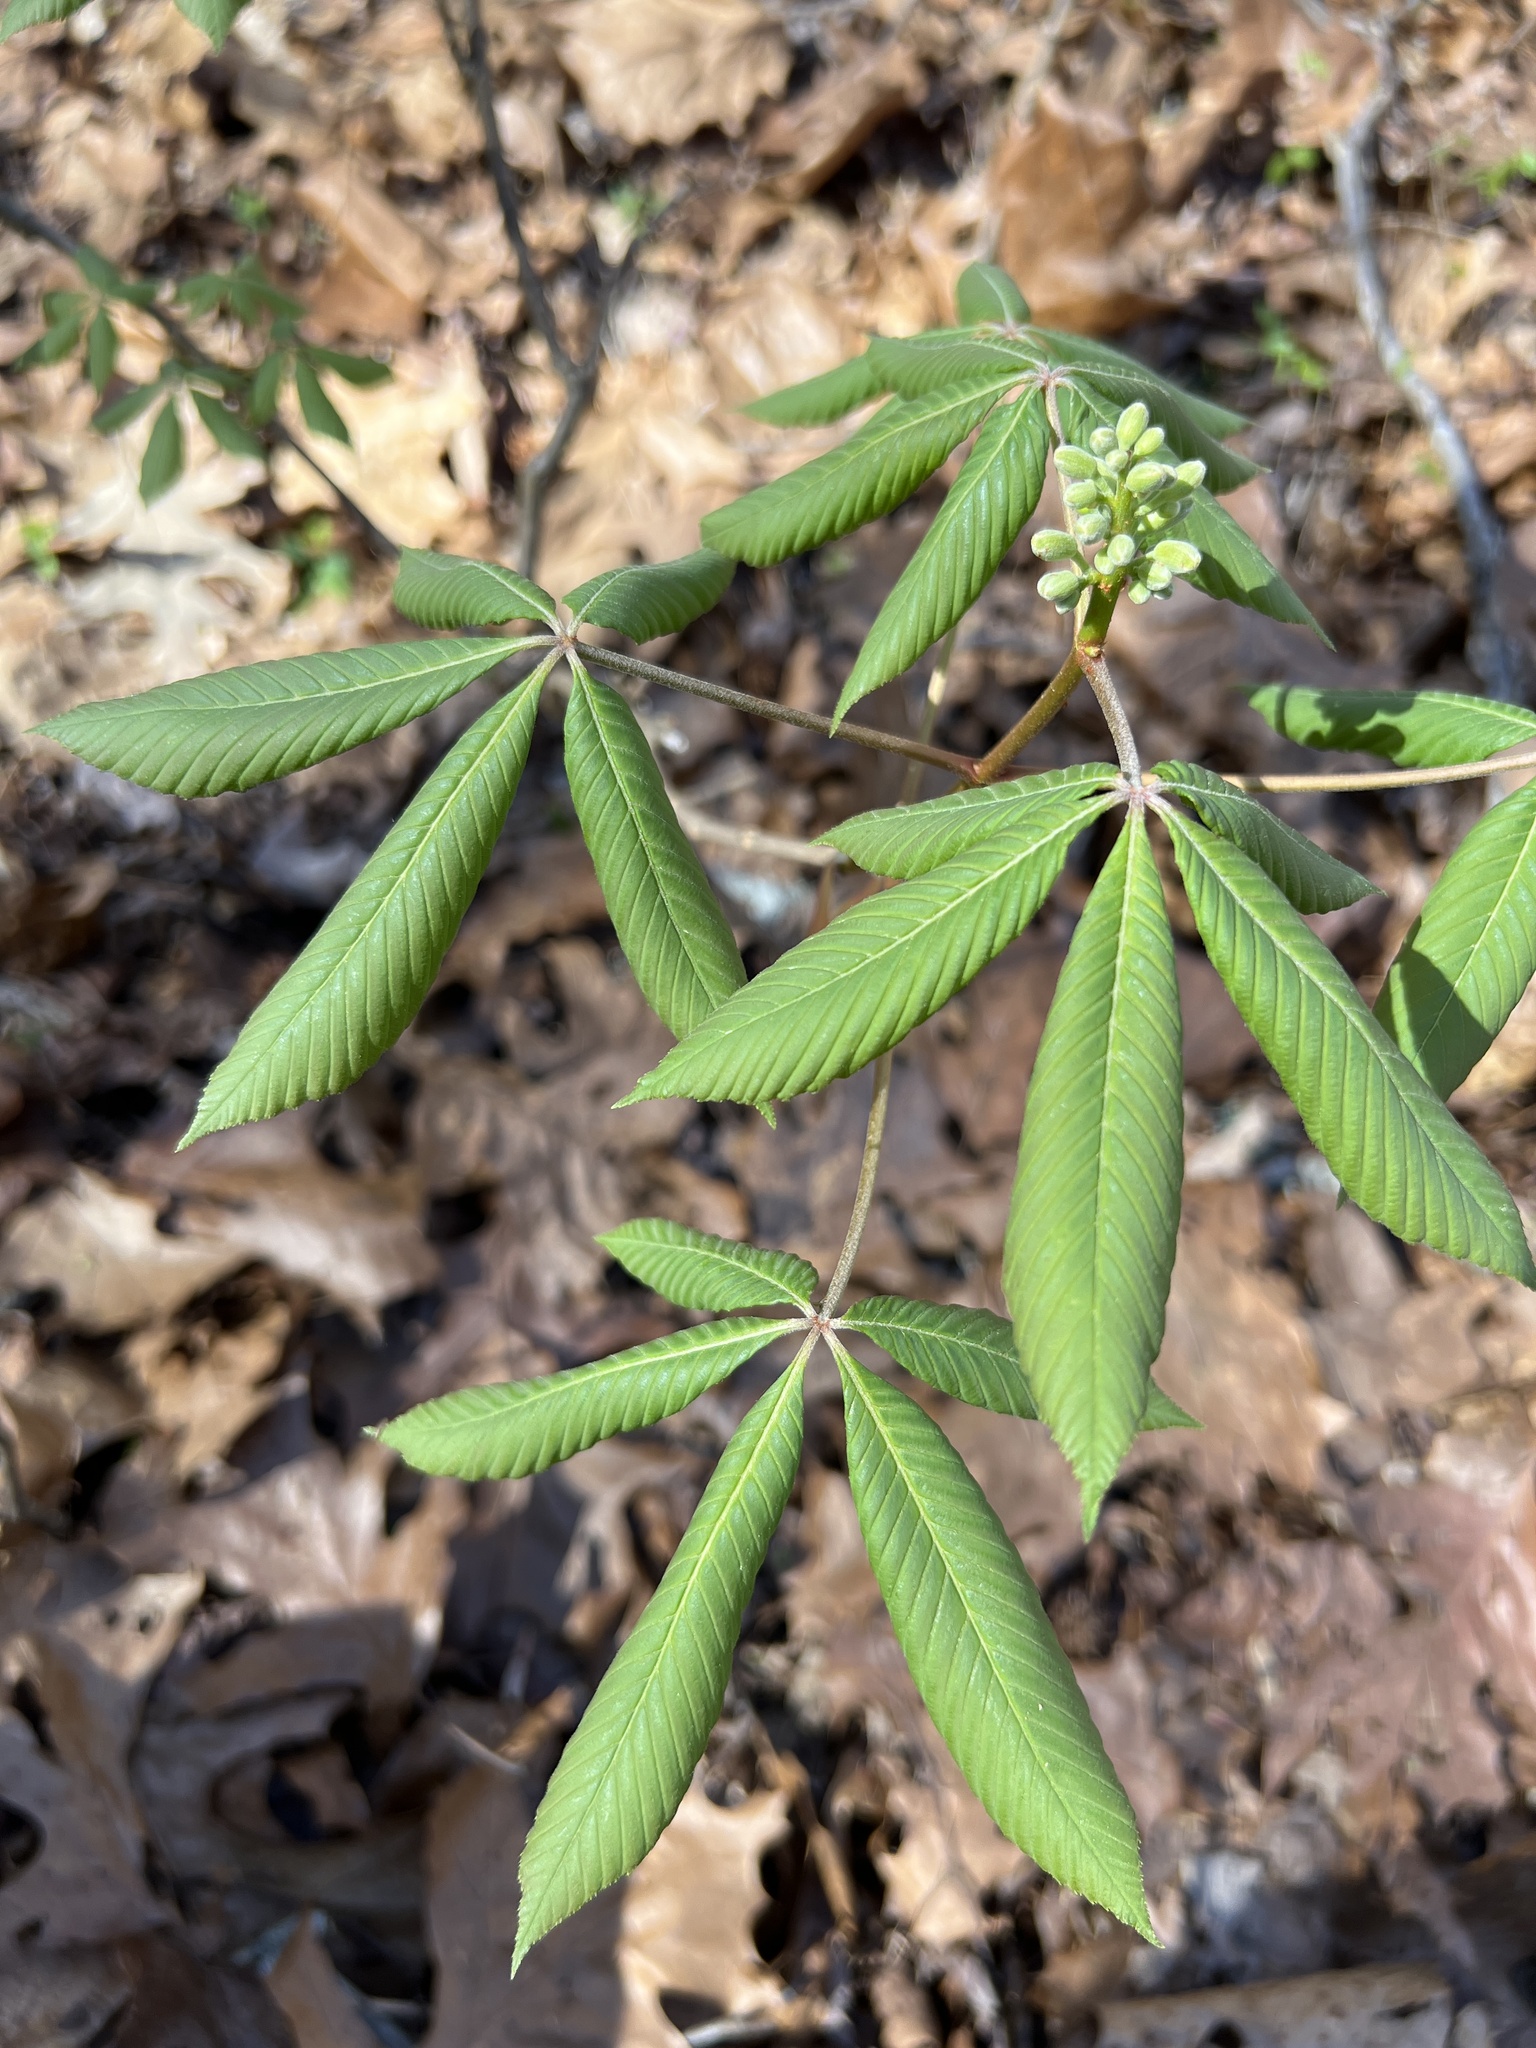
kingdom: Plantae
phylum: Tracheophyta
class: Magnoliopsida
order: Sapindales
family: Sapindaceae
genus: Aesculus
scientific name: Aesculus sylvatica
